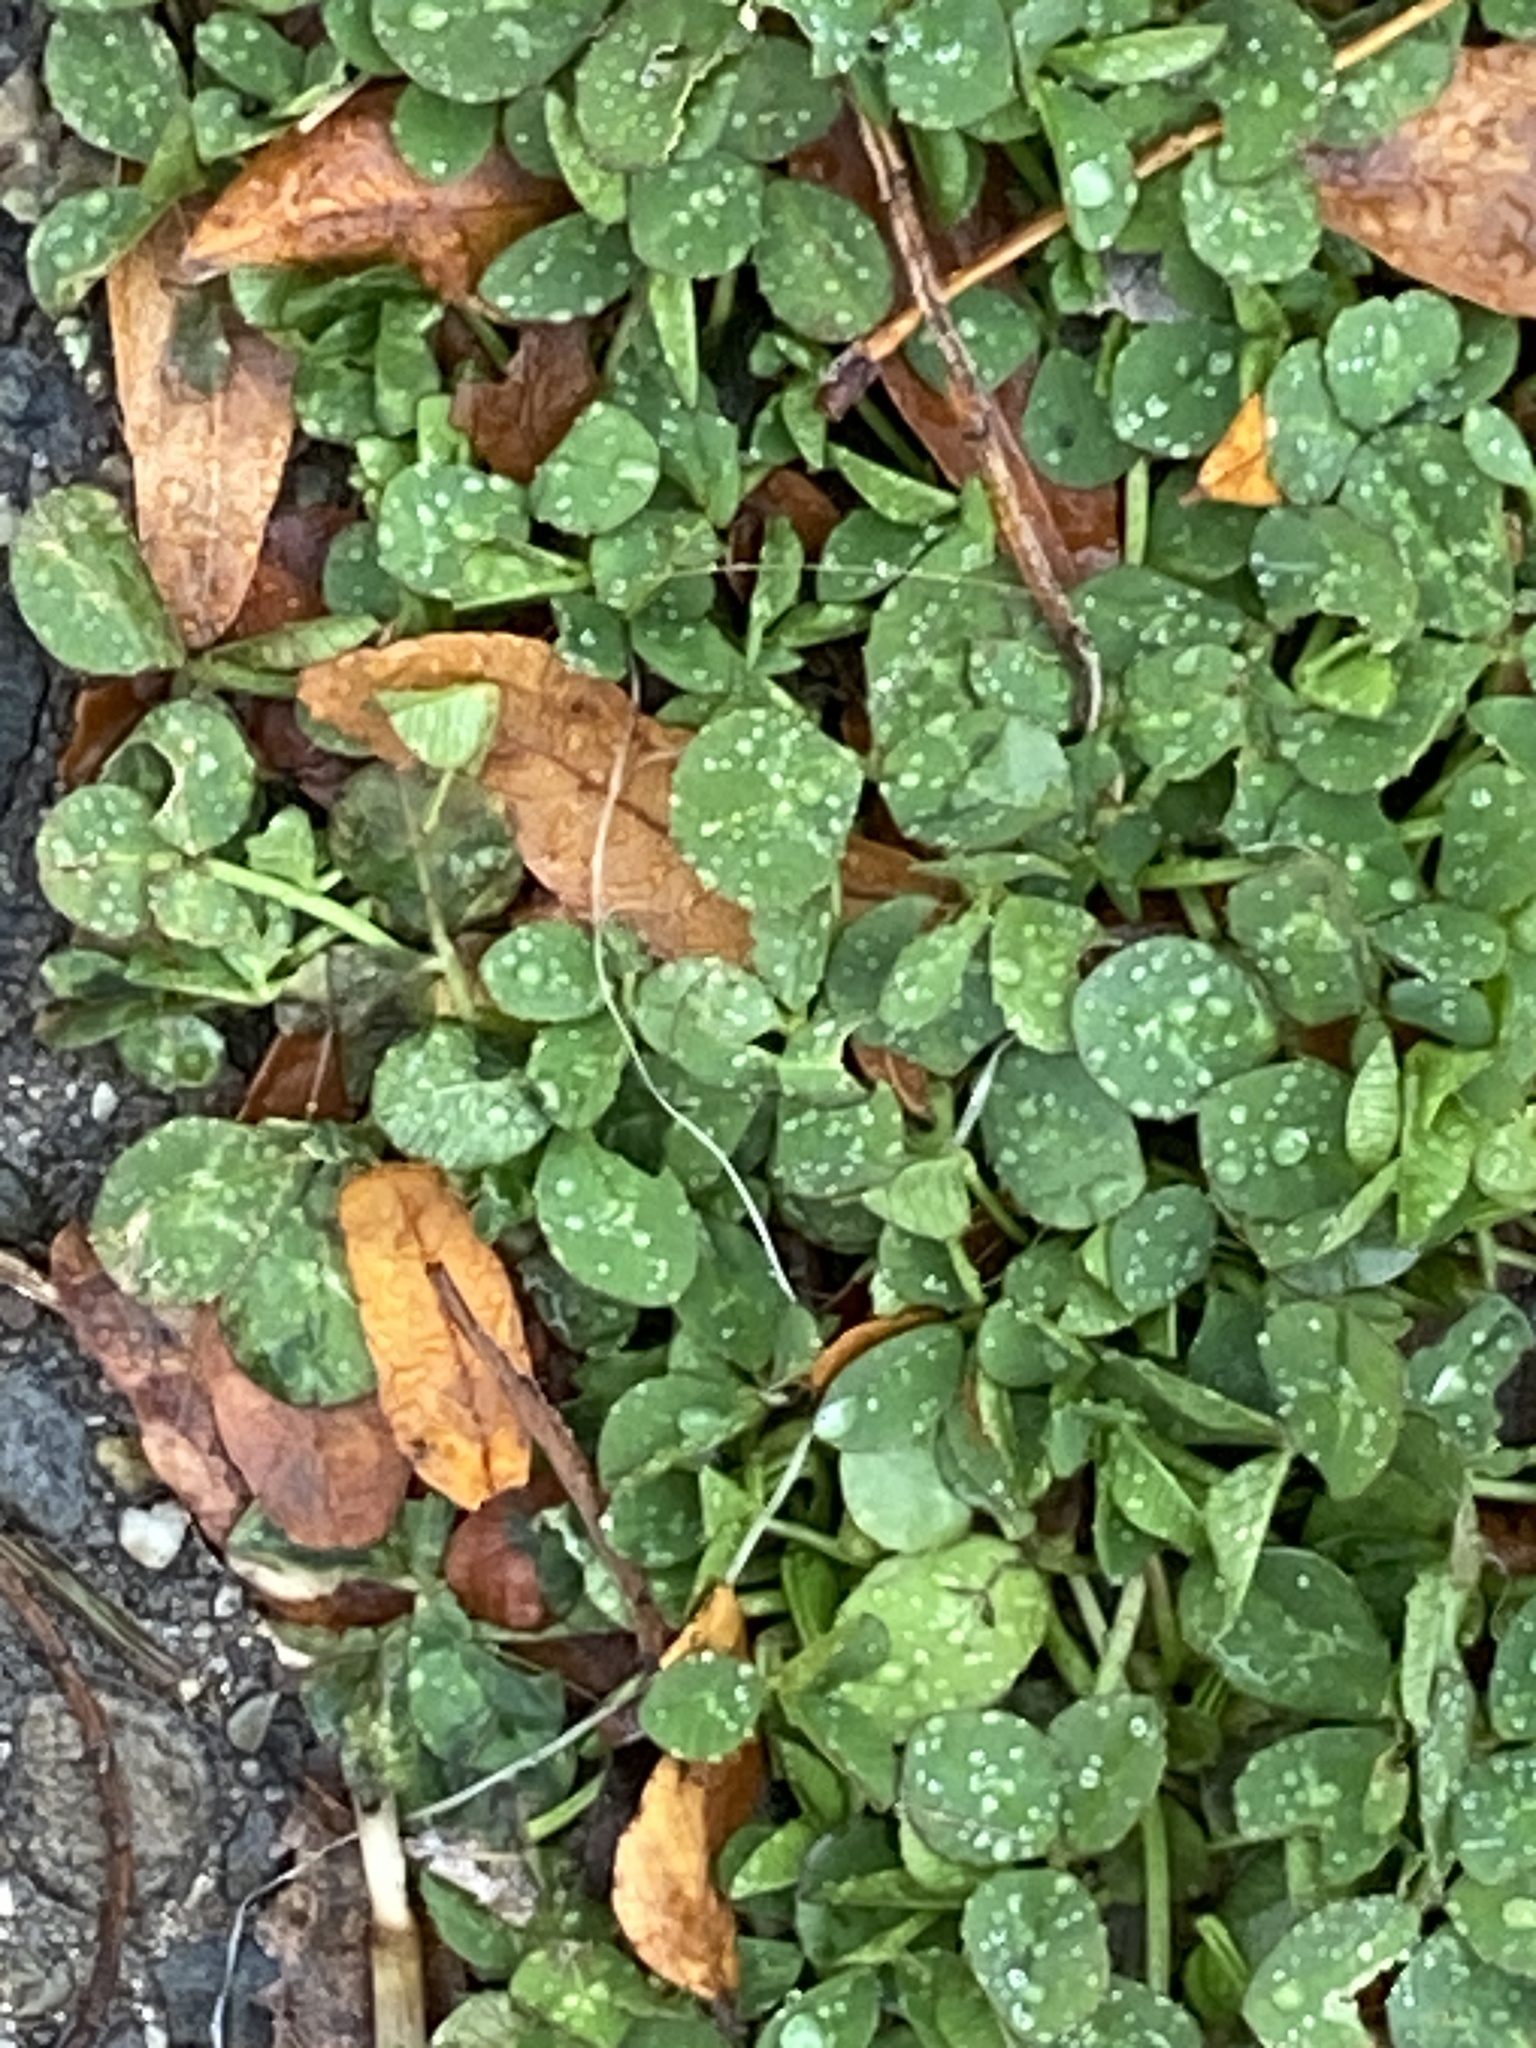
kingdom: Plantae
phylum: Tracheophyta
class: Magnoliopsida
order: Fabales
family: Fabaceae
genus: Trifolium
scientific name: Trifolium repens
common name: White clover
